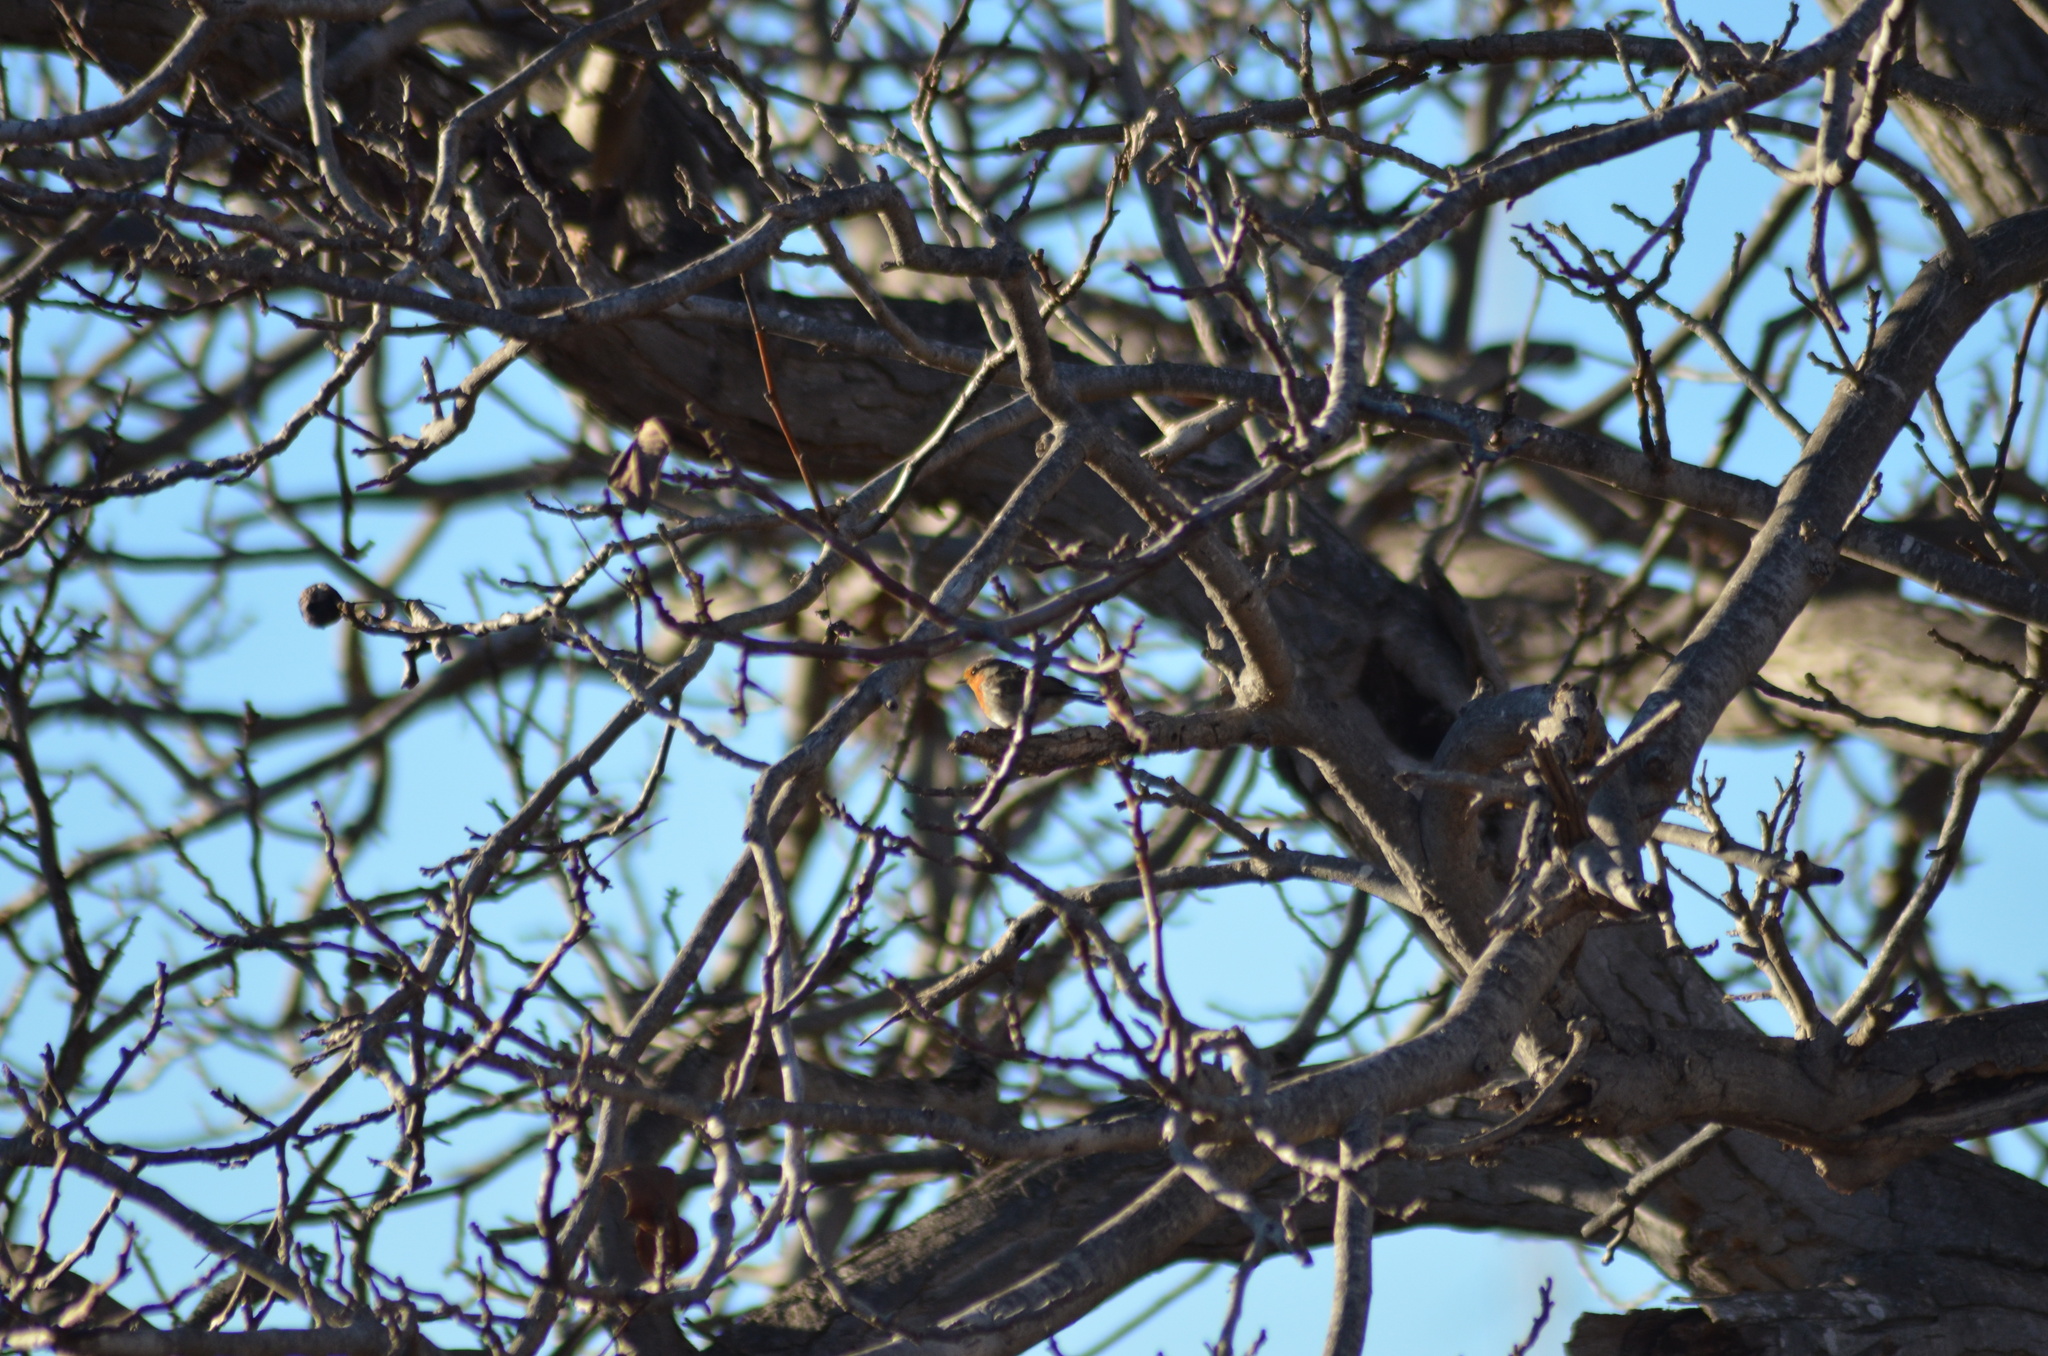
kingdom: Animalia
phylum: Chordata
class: Aves
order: Passeriformes
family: Muscicapidae
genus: Erithacus
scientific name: Erithacus rubecula
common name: European robin
